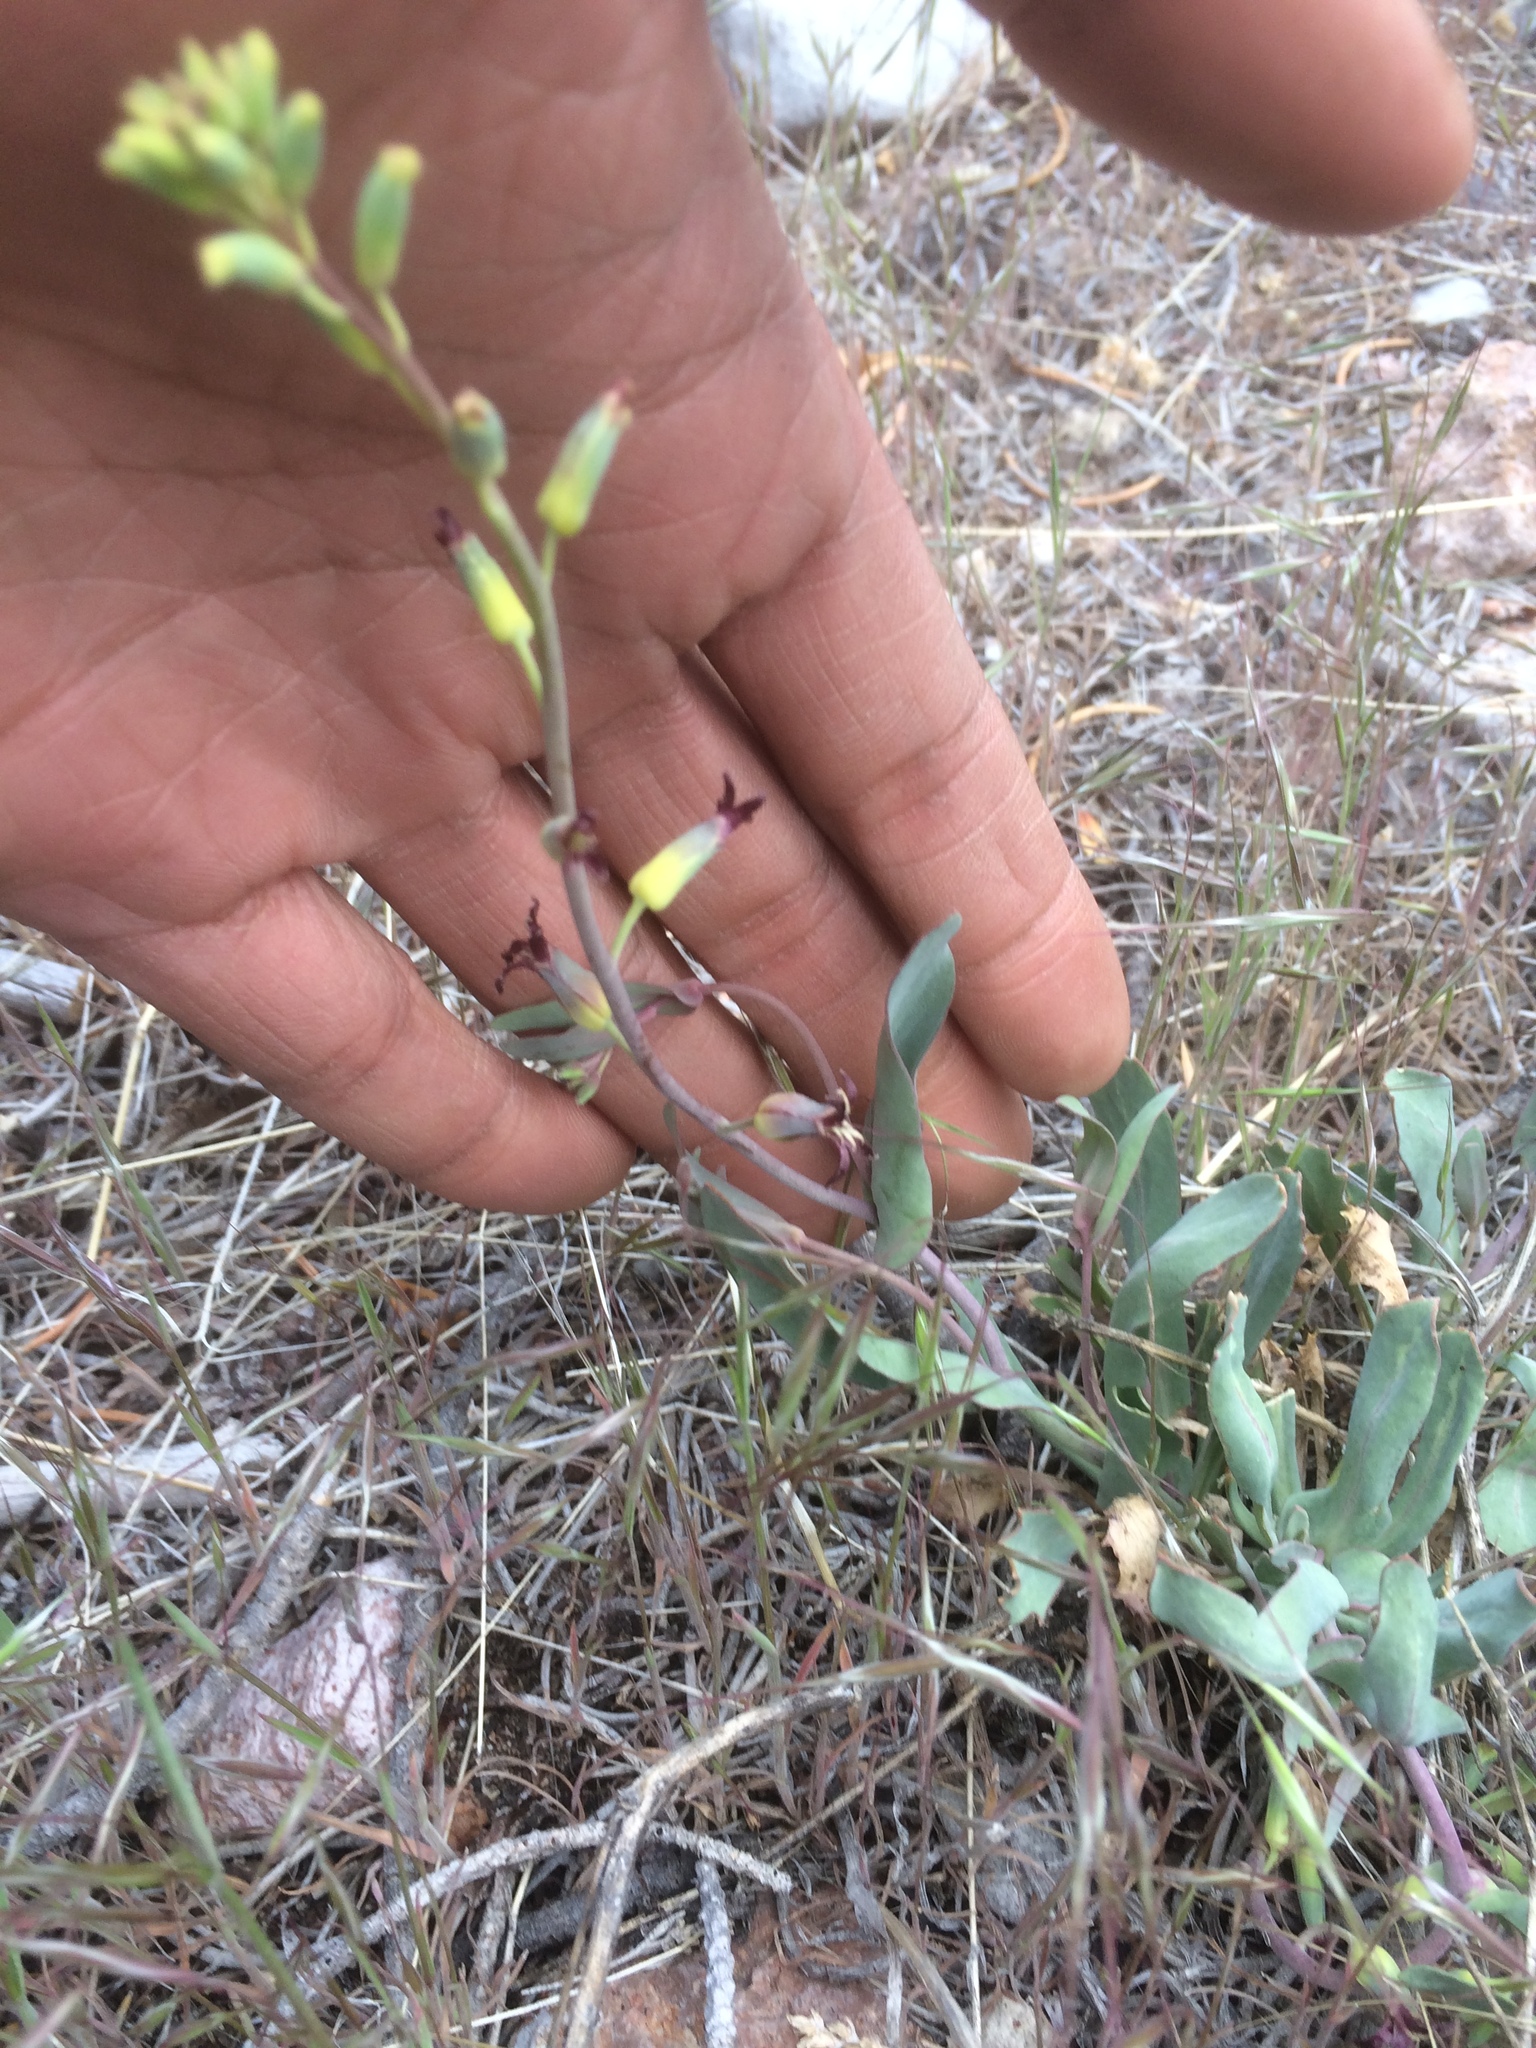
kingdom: Plantae
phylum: Tracheophyta
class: Magnoliopsida
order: Brassicales
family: Brassicaceae
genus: Streptanthus
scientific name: Streptanthus cordatus
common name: Heart-leaf jewel-flower
